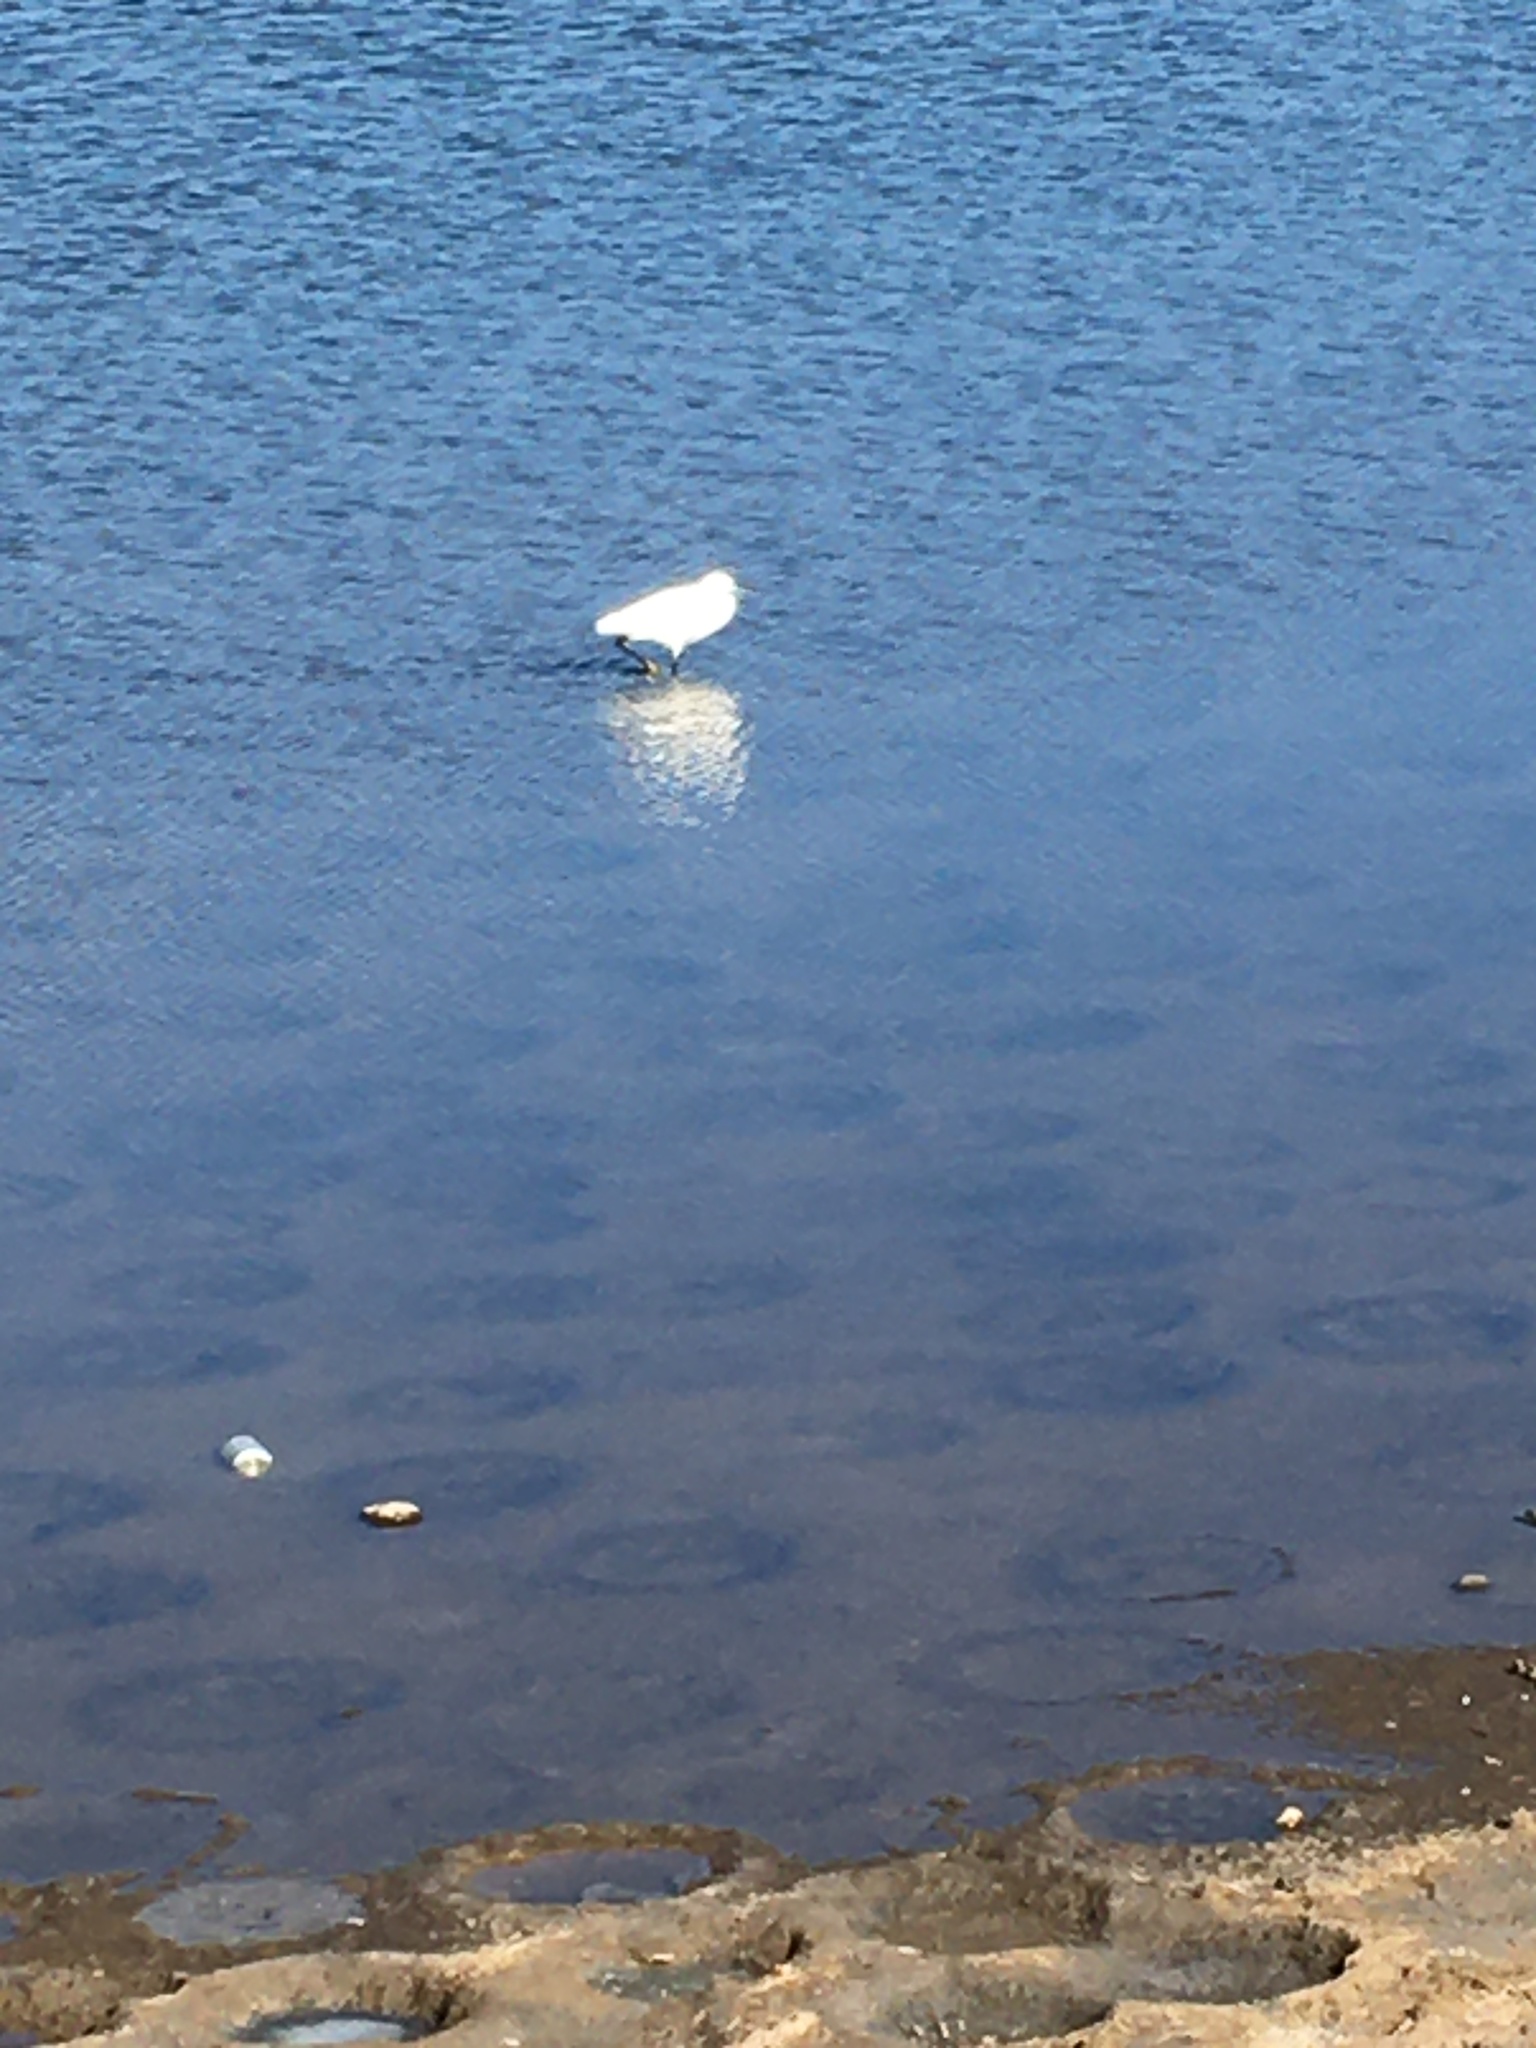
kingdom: Animalia
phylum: Chordata
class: Aves
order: Pelecaniformes
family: Ardeidae
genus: Egretta
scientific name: Egretta garzetta
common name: Little egret
